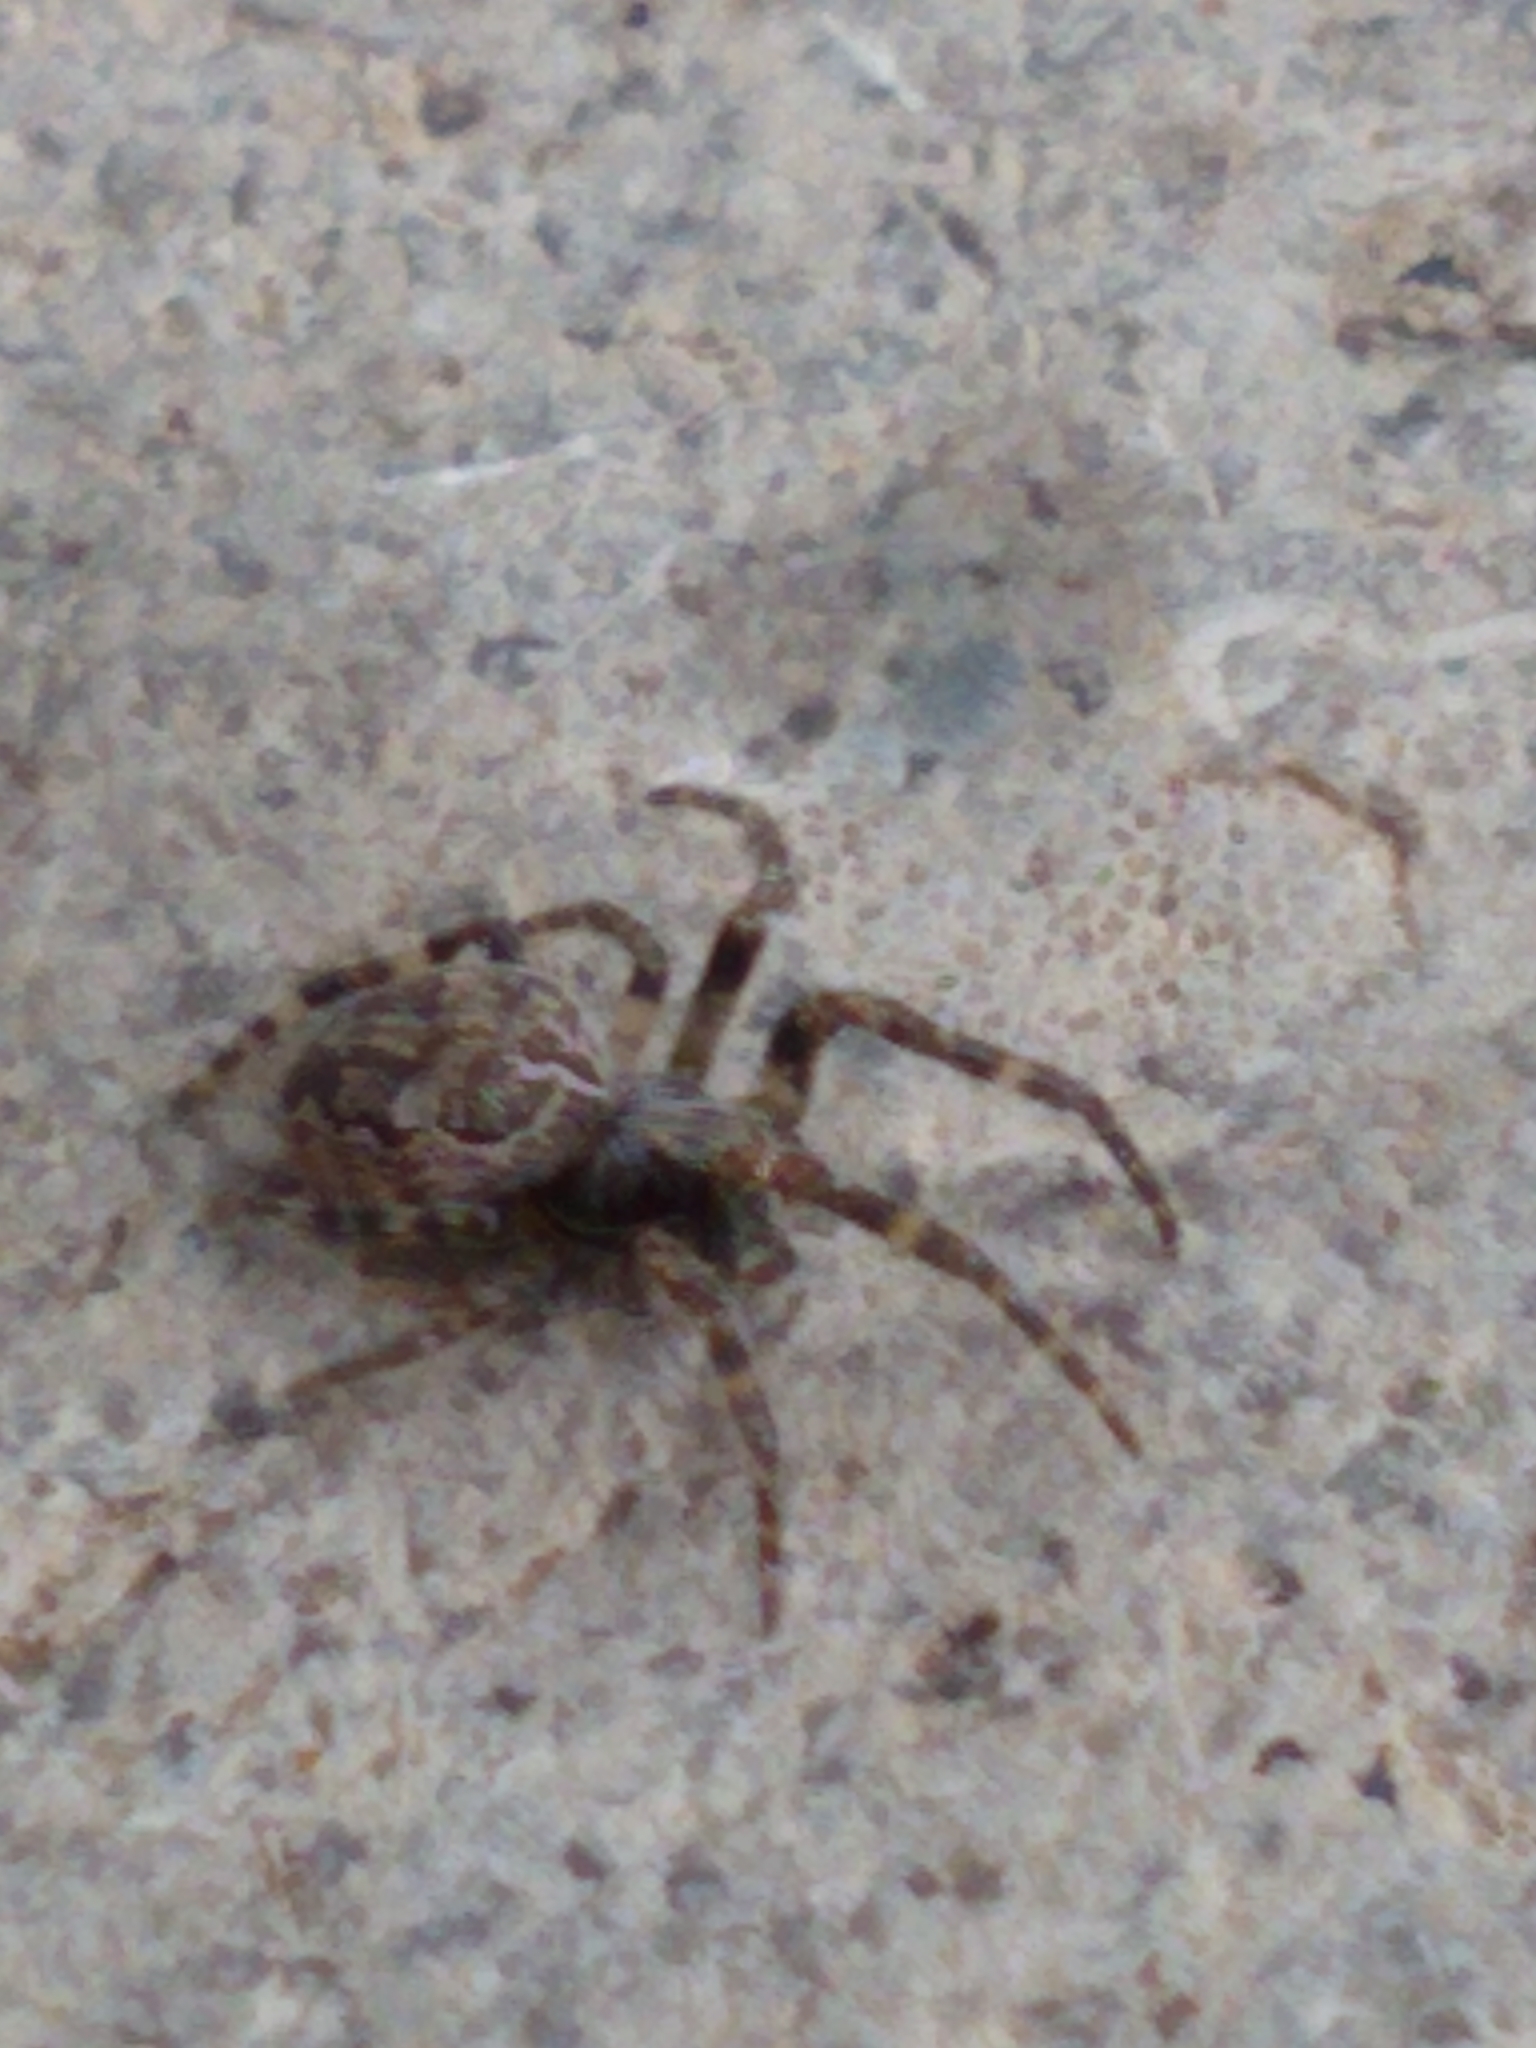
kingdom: Animalia
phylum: Arthropoda
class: Arachnida
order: Araneae
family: Araneidae
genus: Larinioides
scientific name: Larinioides sclopetarius
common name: Bridge orbweaver
